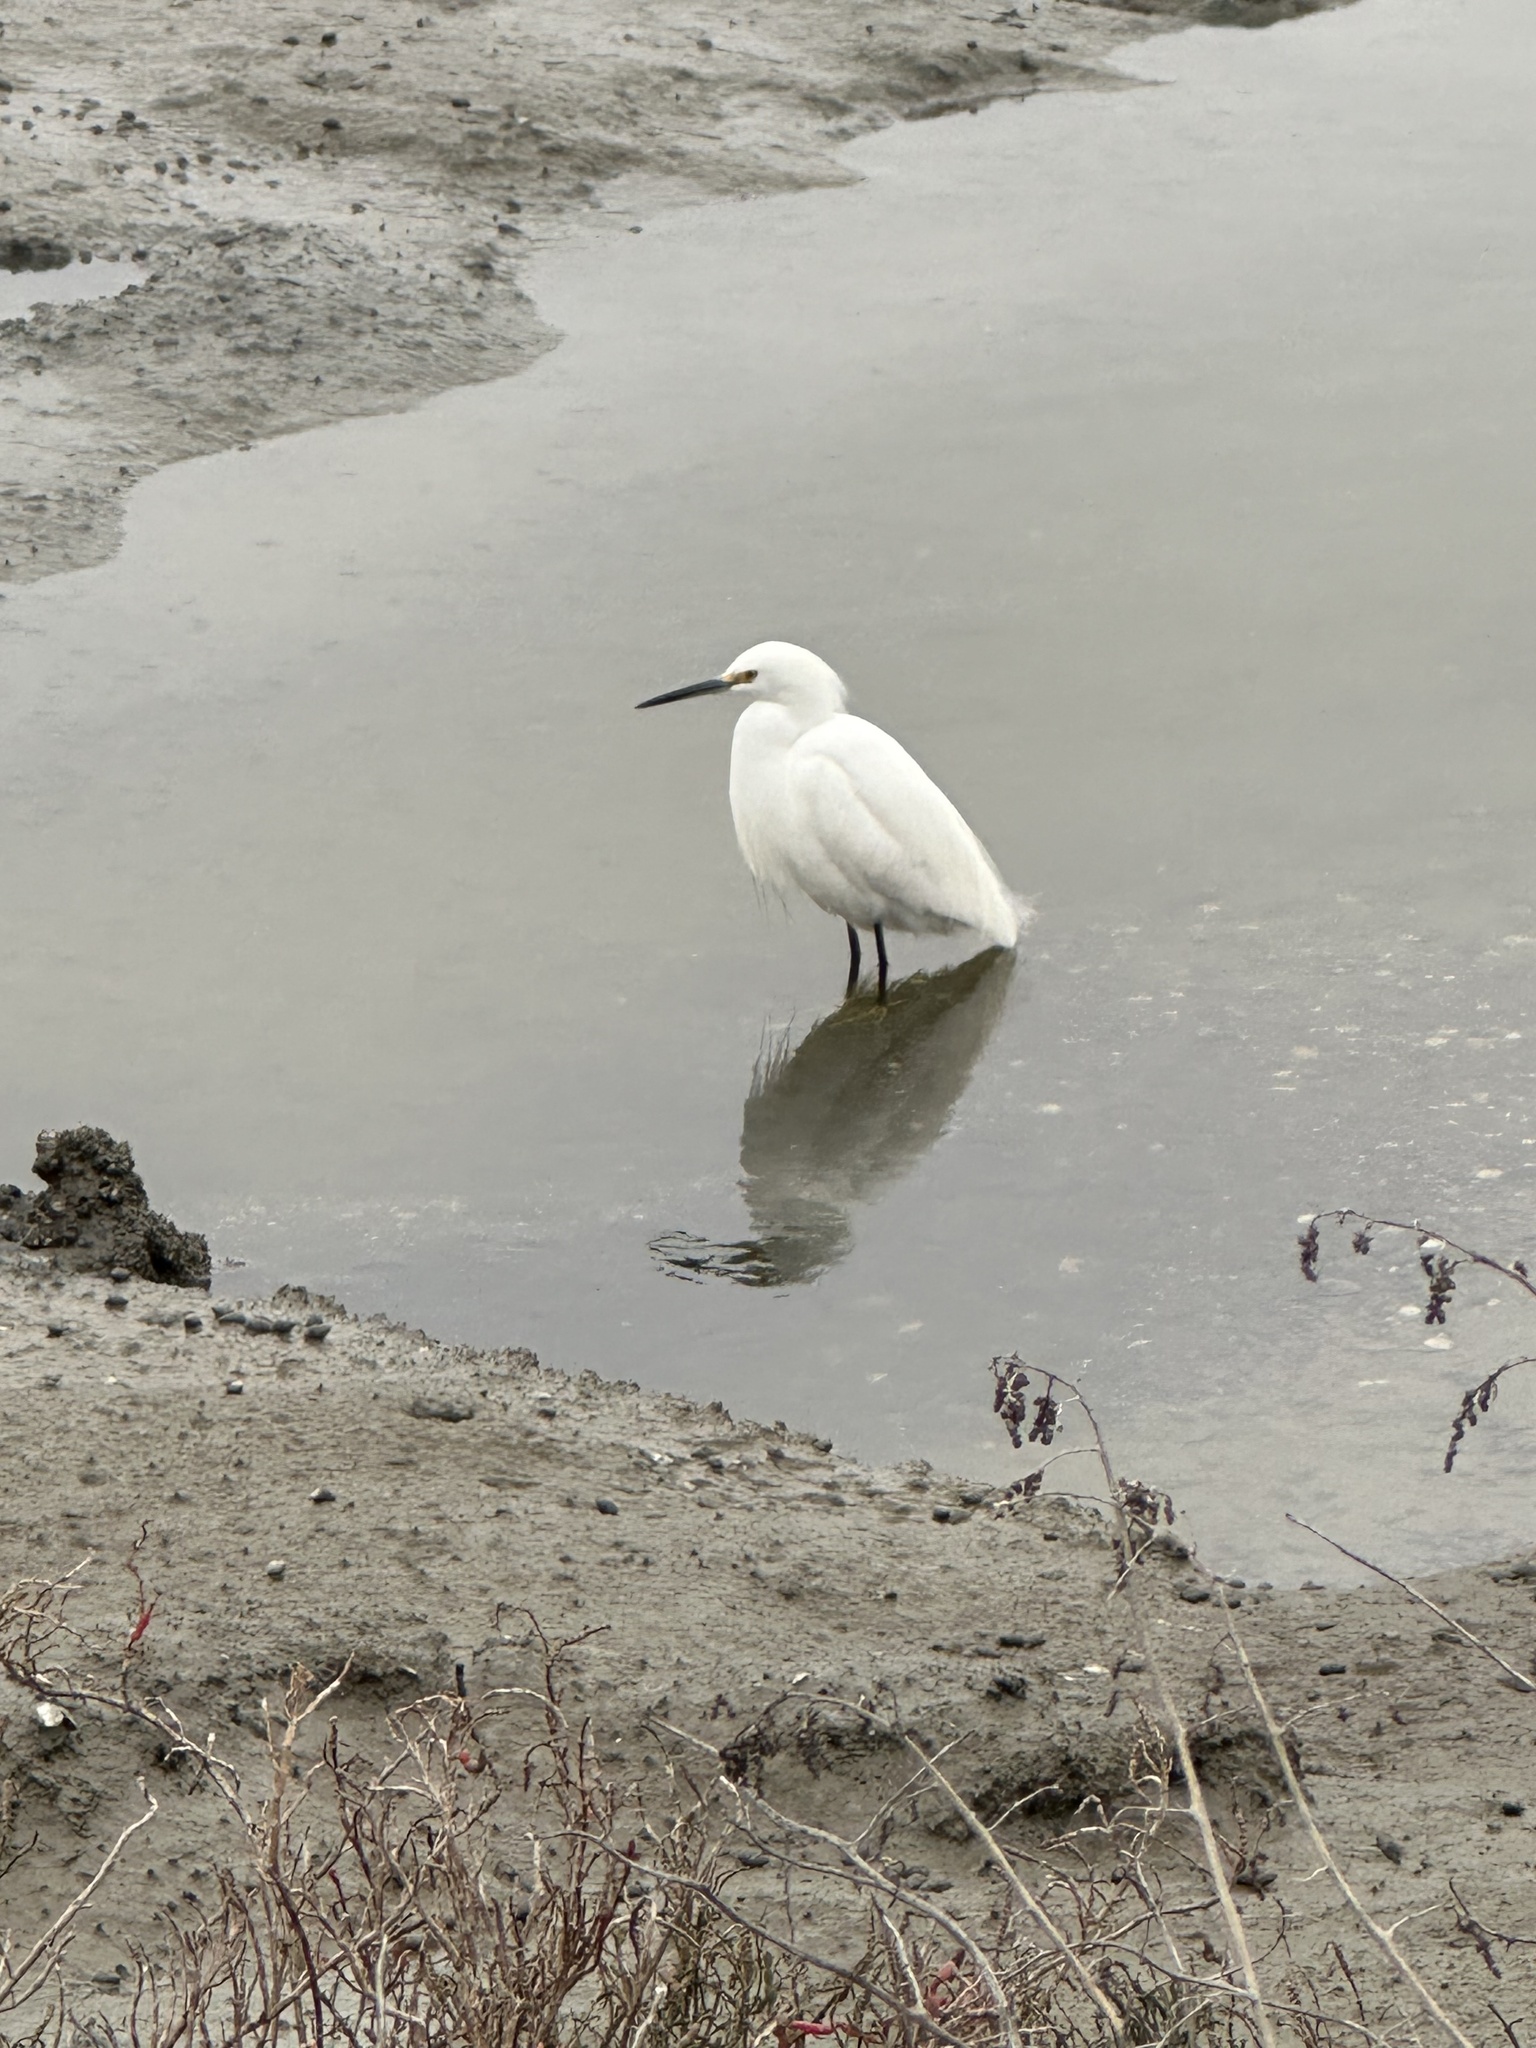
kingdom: Animalia
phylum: Chordata
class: Aves
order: Pelecaniformes
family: Ardeidae
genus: Egretta
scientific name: Egretta thula
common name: Snowy egret
